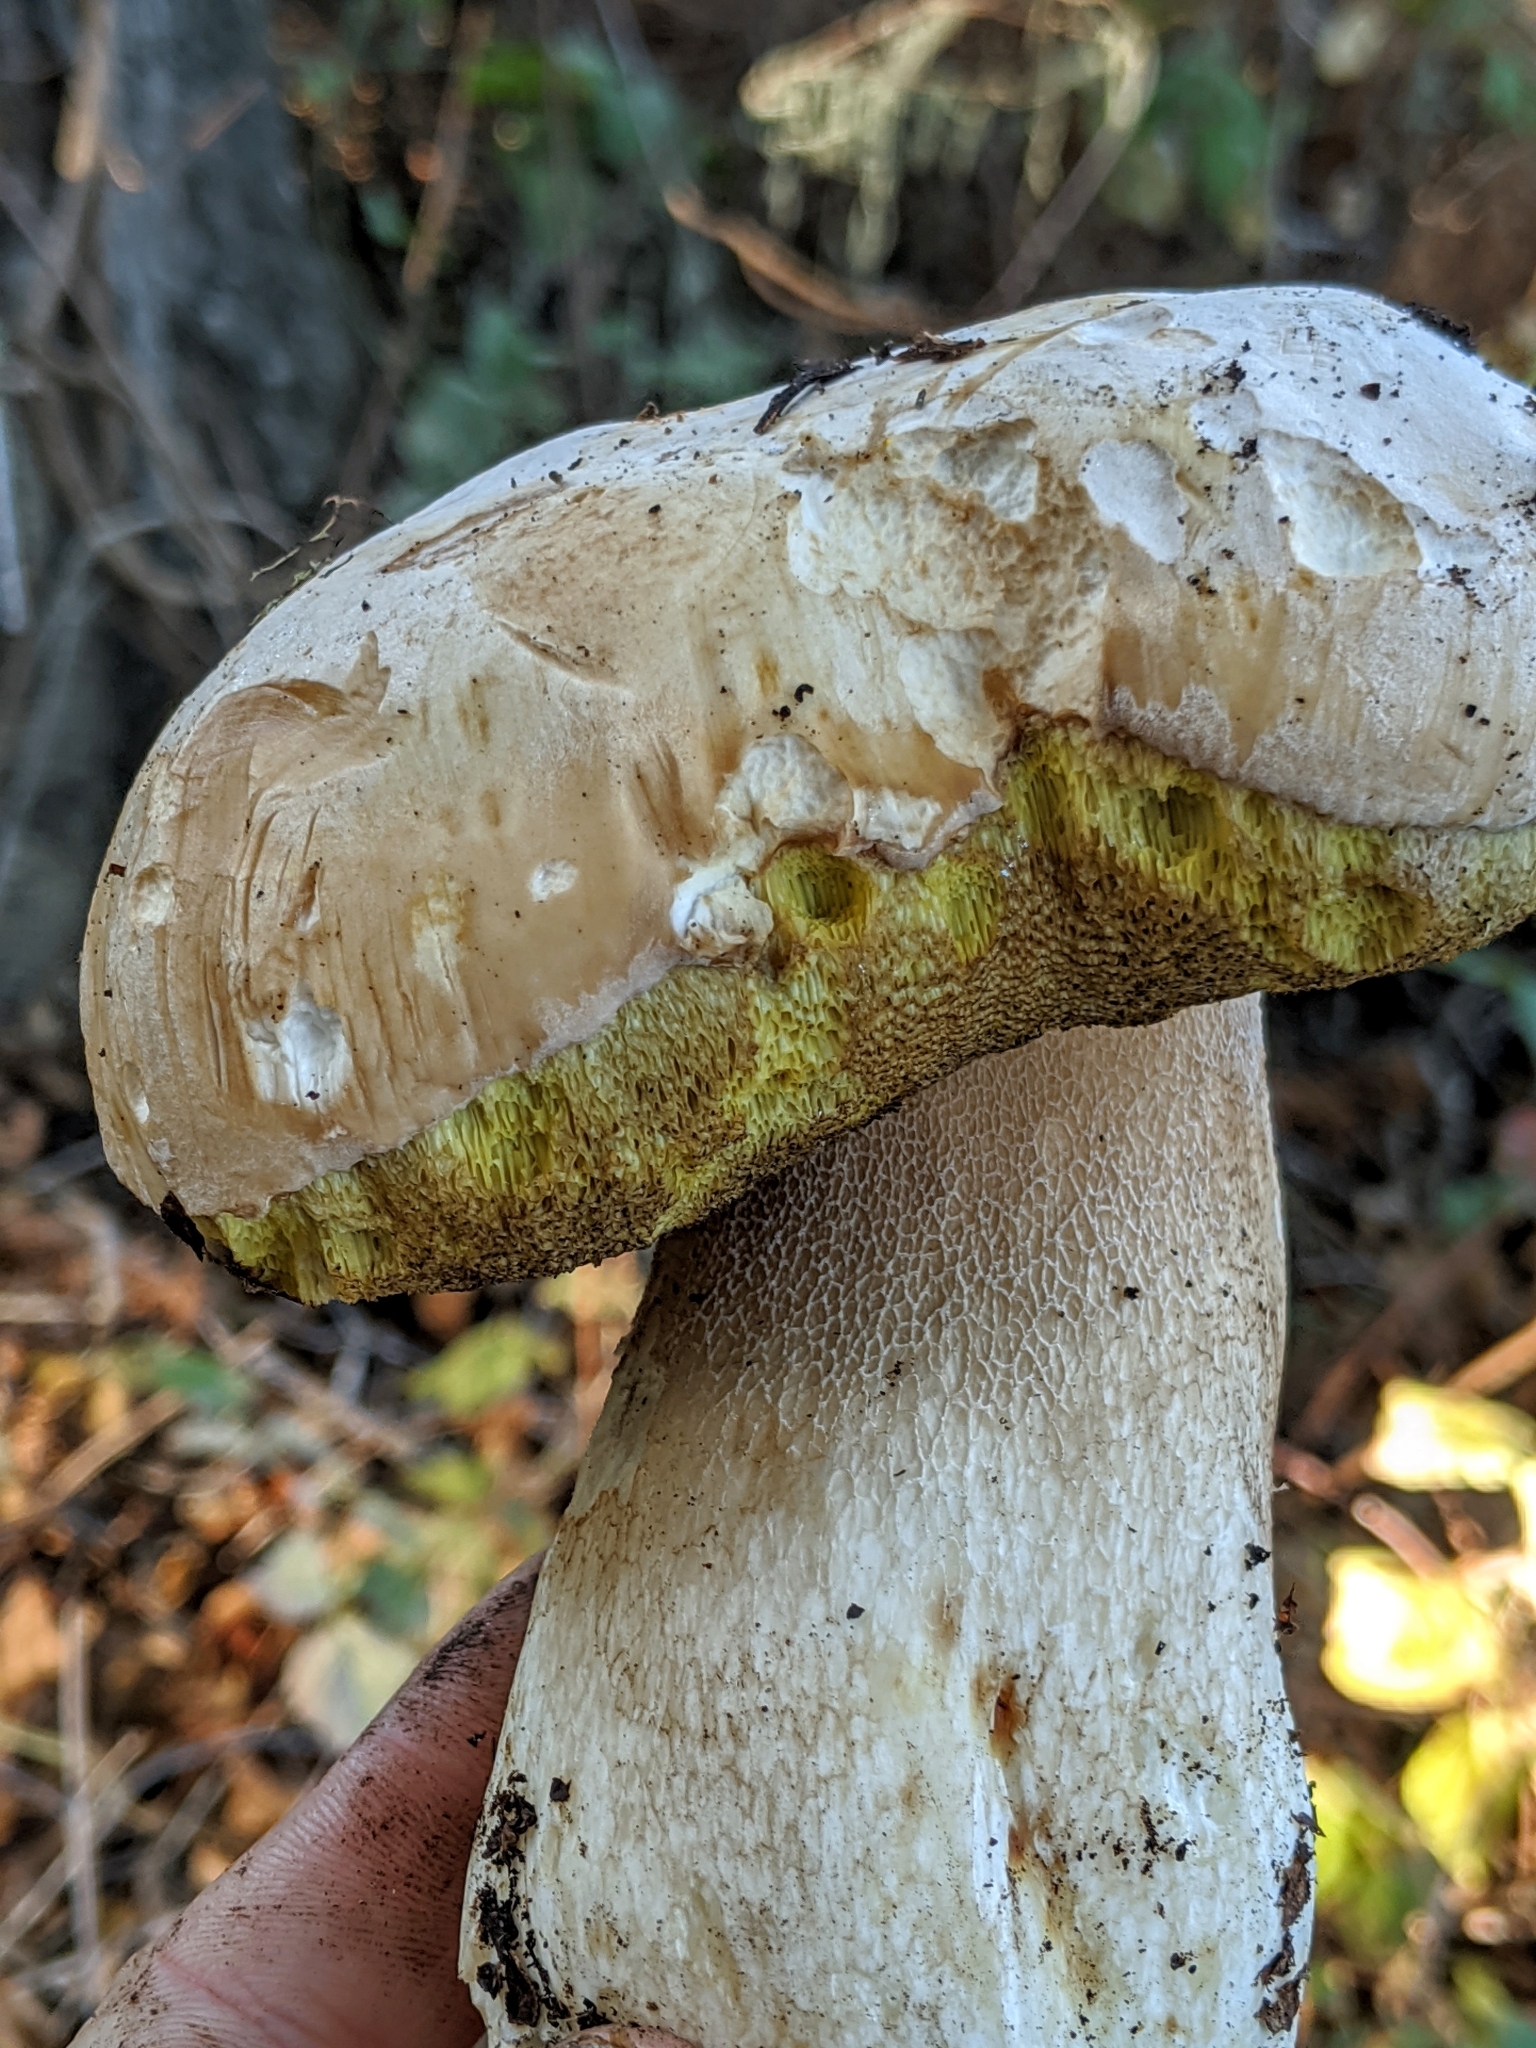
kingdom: Fungi
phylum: Basidiomycota
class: Agaricomycetes
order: Boletales
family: Boletaceae
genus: Boletus
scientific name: Boletus barrowsii
